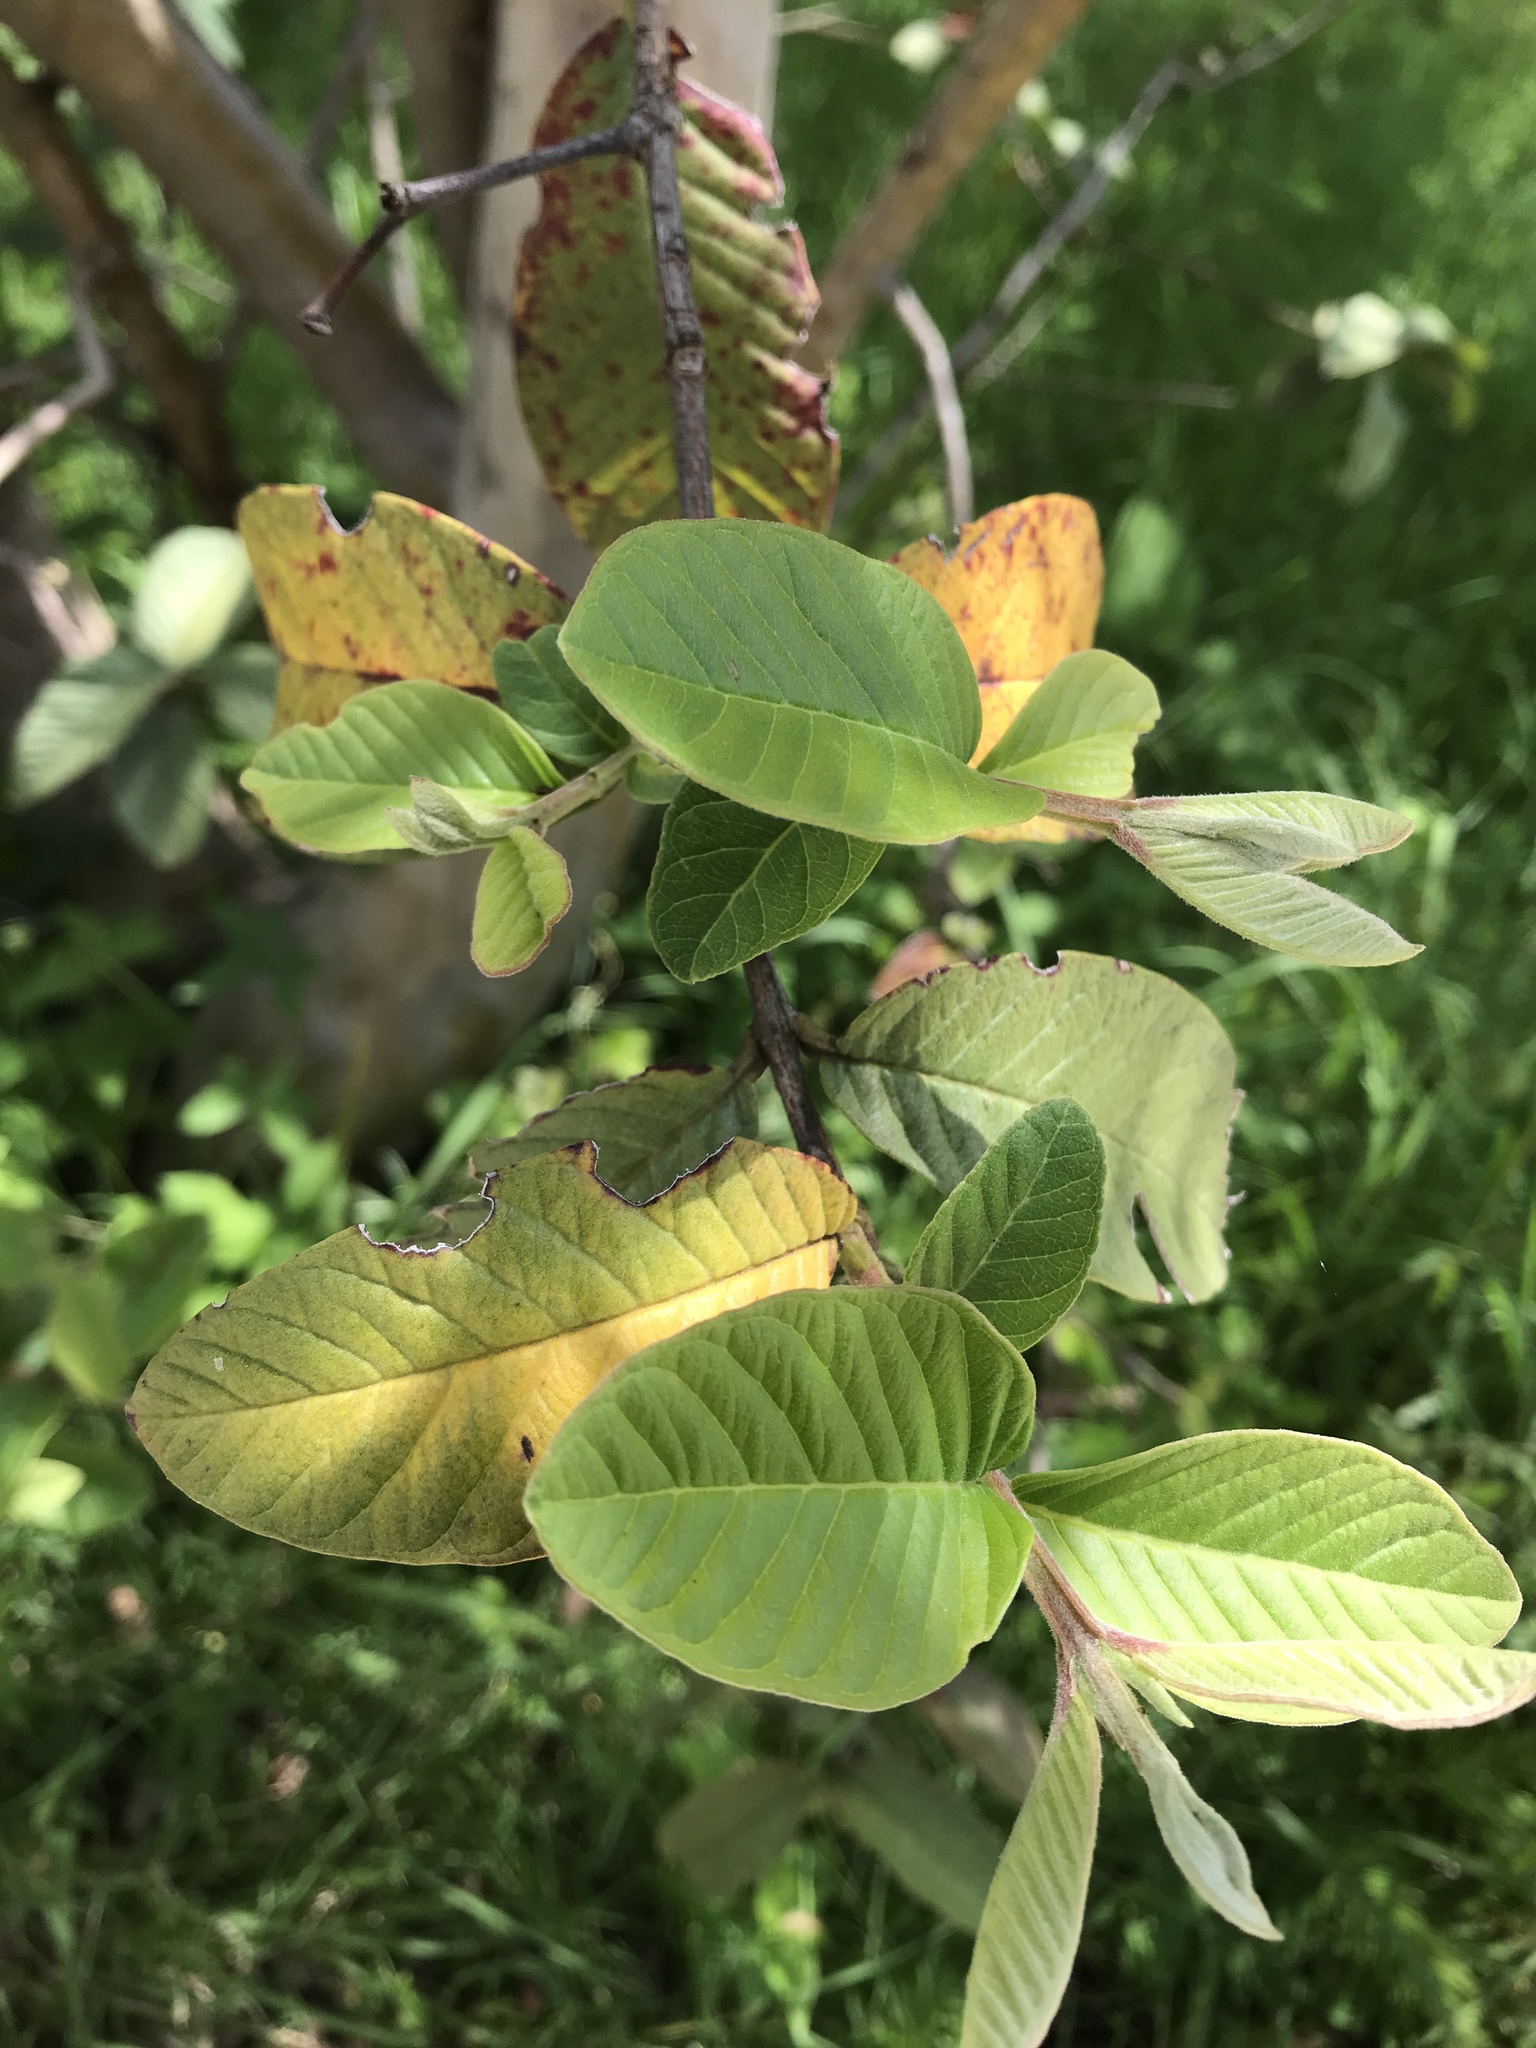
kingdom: Plantae
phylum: Tracheophyta
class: Magnoliopsida
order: Myrtales
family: Myrtaceae
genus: Psidium
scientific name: Psidium guajava
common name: Guava
